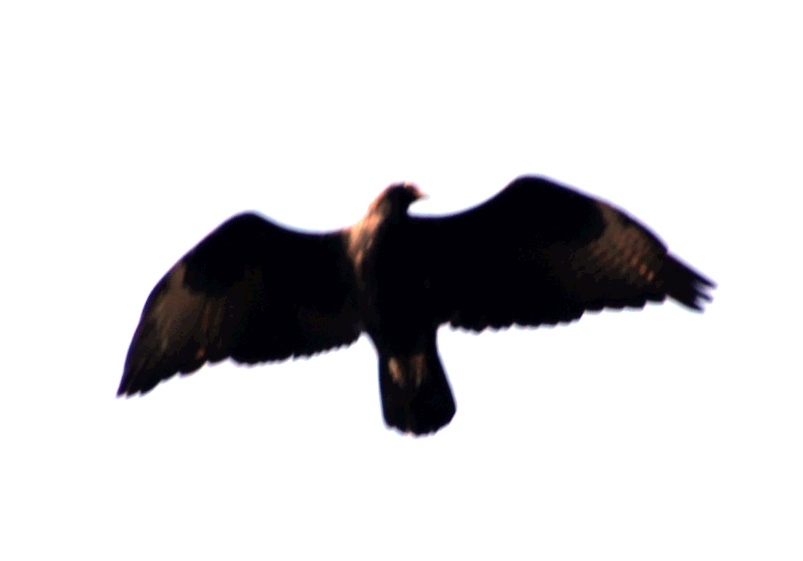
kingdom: Animalia
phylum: Chordata
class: Aves
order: Accipitriformes
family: Accipitridae
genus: Aquila
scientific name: Aquila verreauxii
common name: Verreaux's eagle
